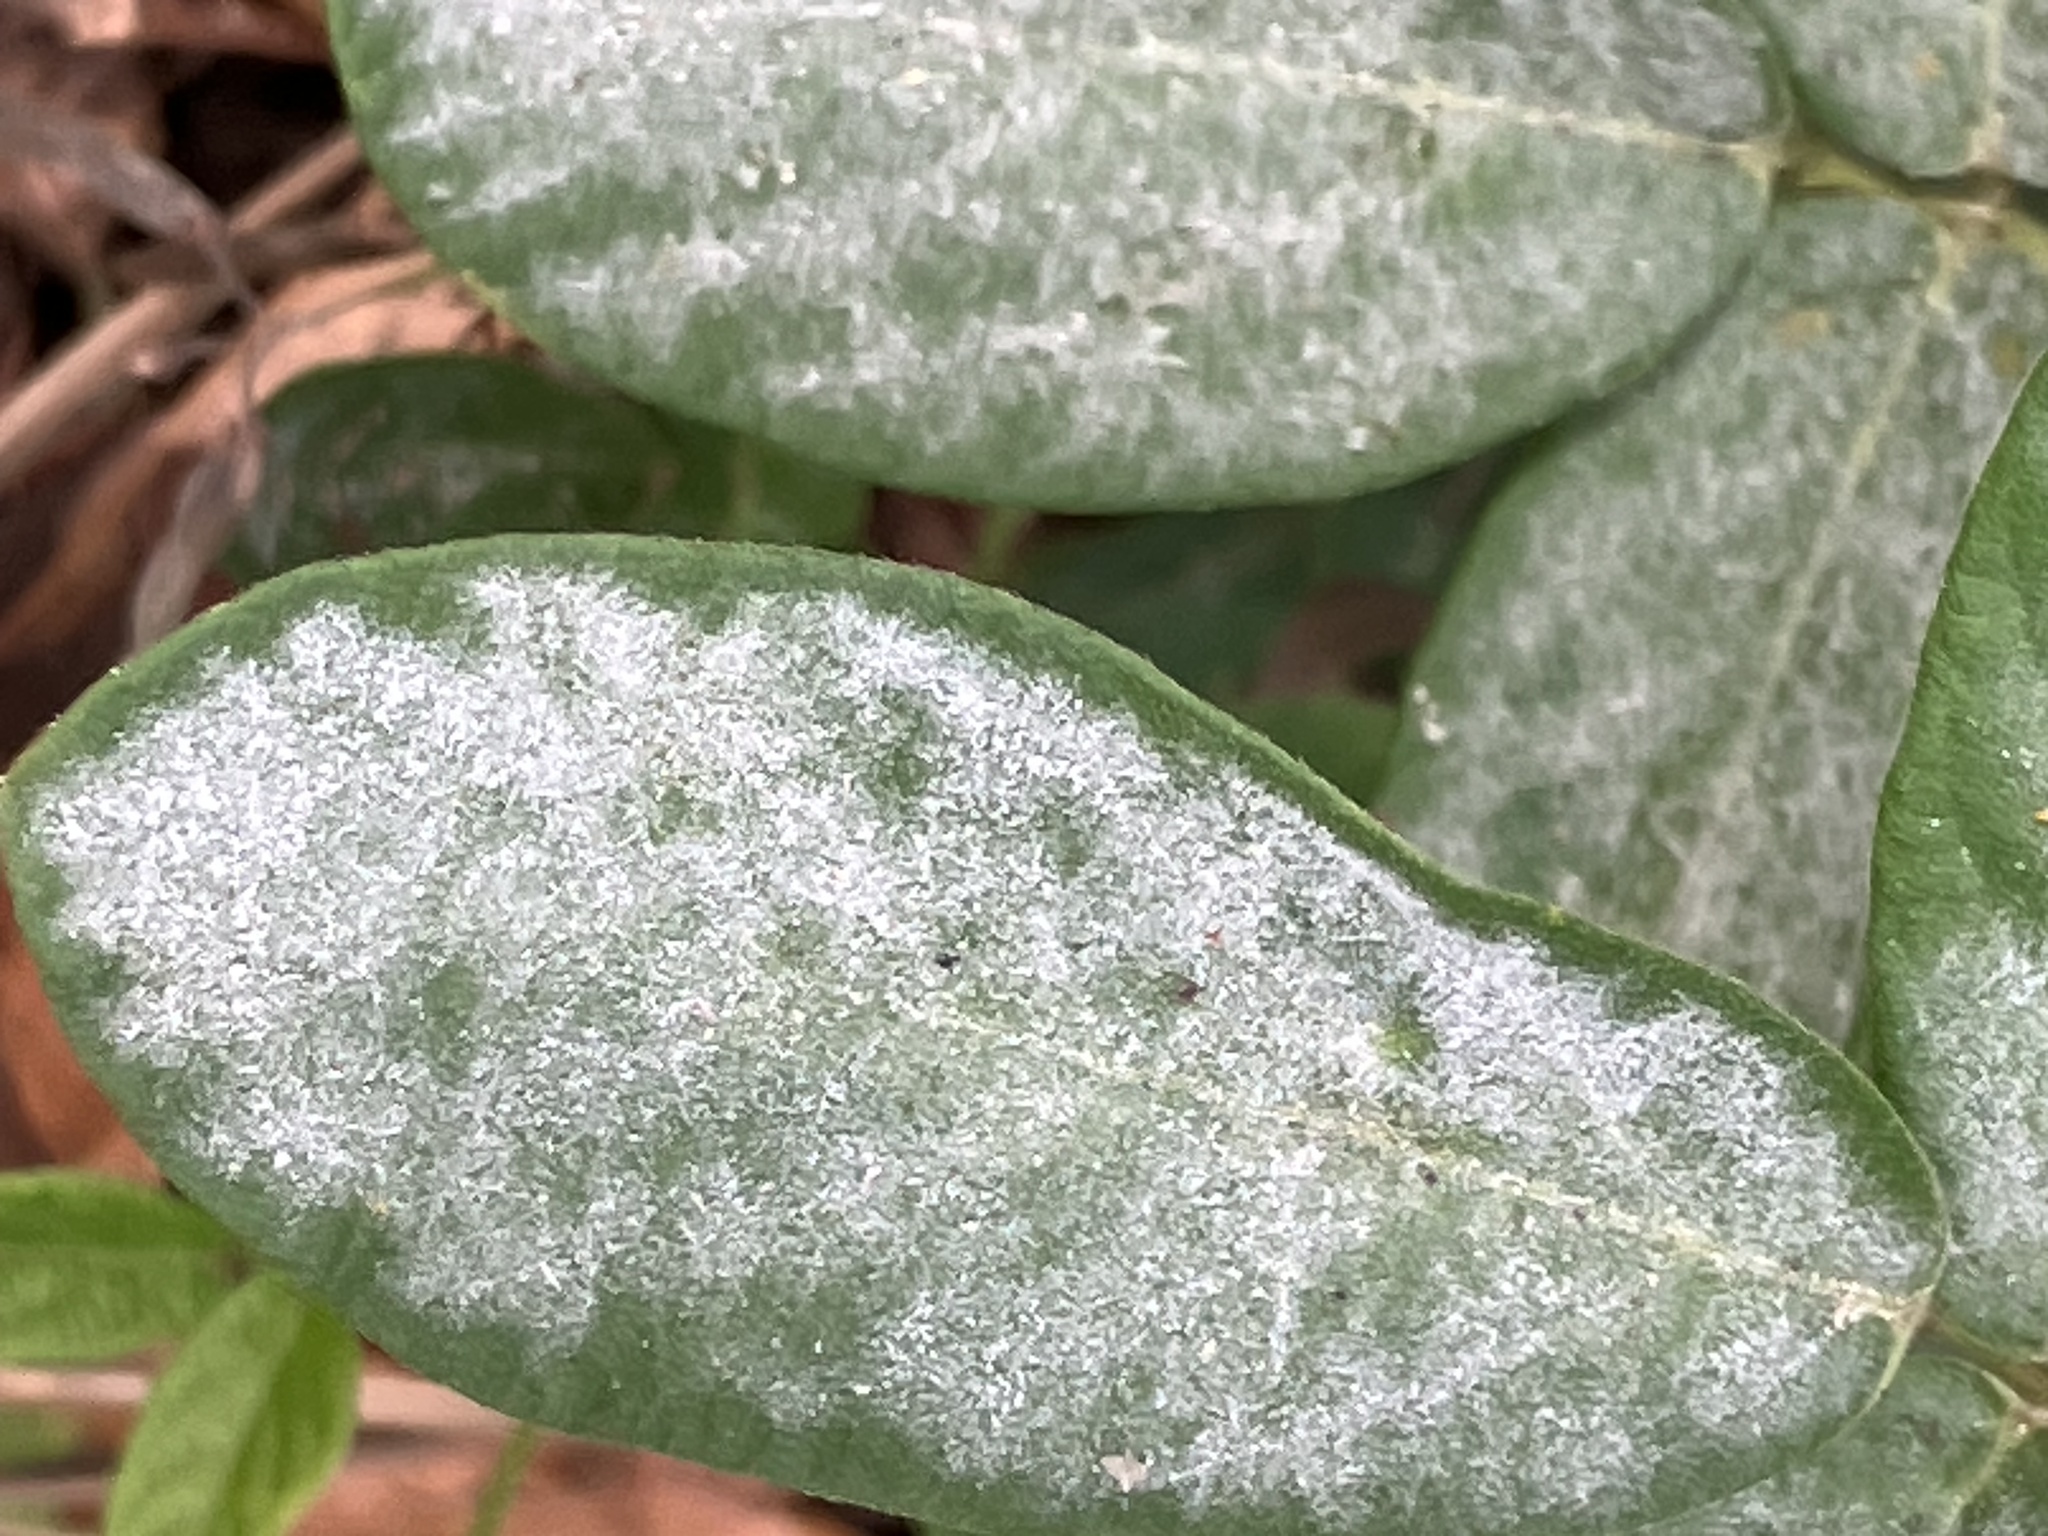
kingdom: Plantae
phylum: Tracheophyta
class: Magnoliopsida
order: Fabales
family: Fabaceae
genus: Desmodium
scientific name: Desmodium
